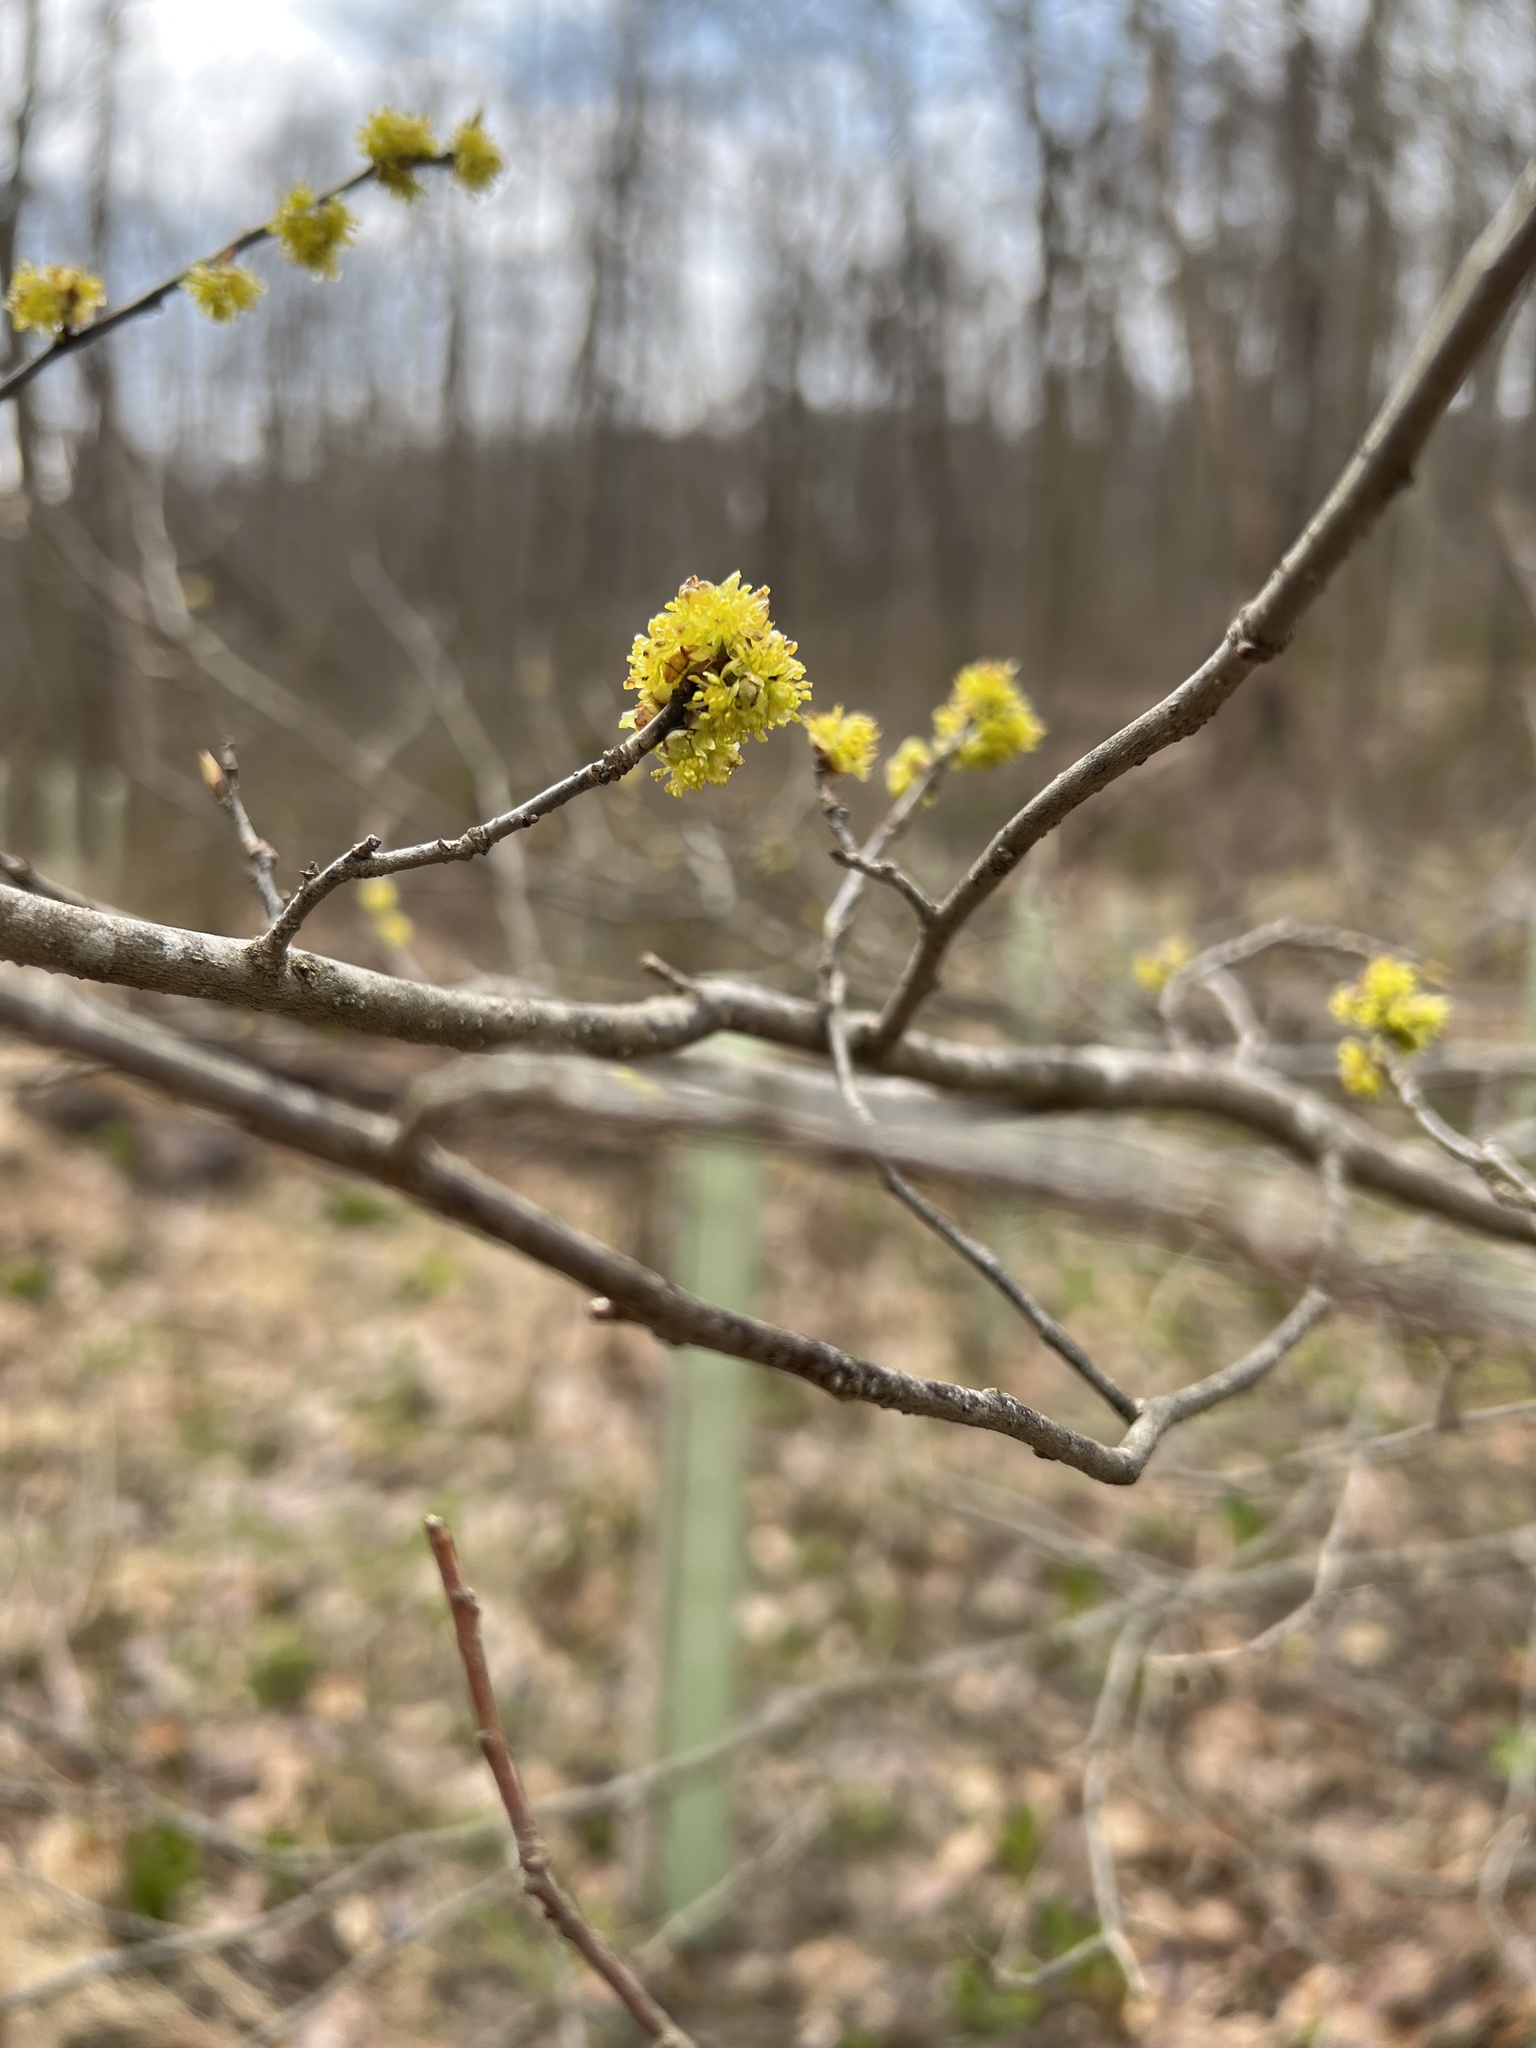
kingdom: Plantae
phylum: Tracheophyta
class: Magnoliopsida
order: Laurales
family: Lauraceae
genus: Lindera
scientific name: Lindera benzoin
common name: Spicebush
